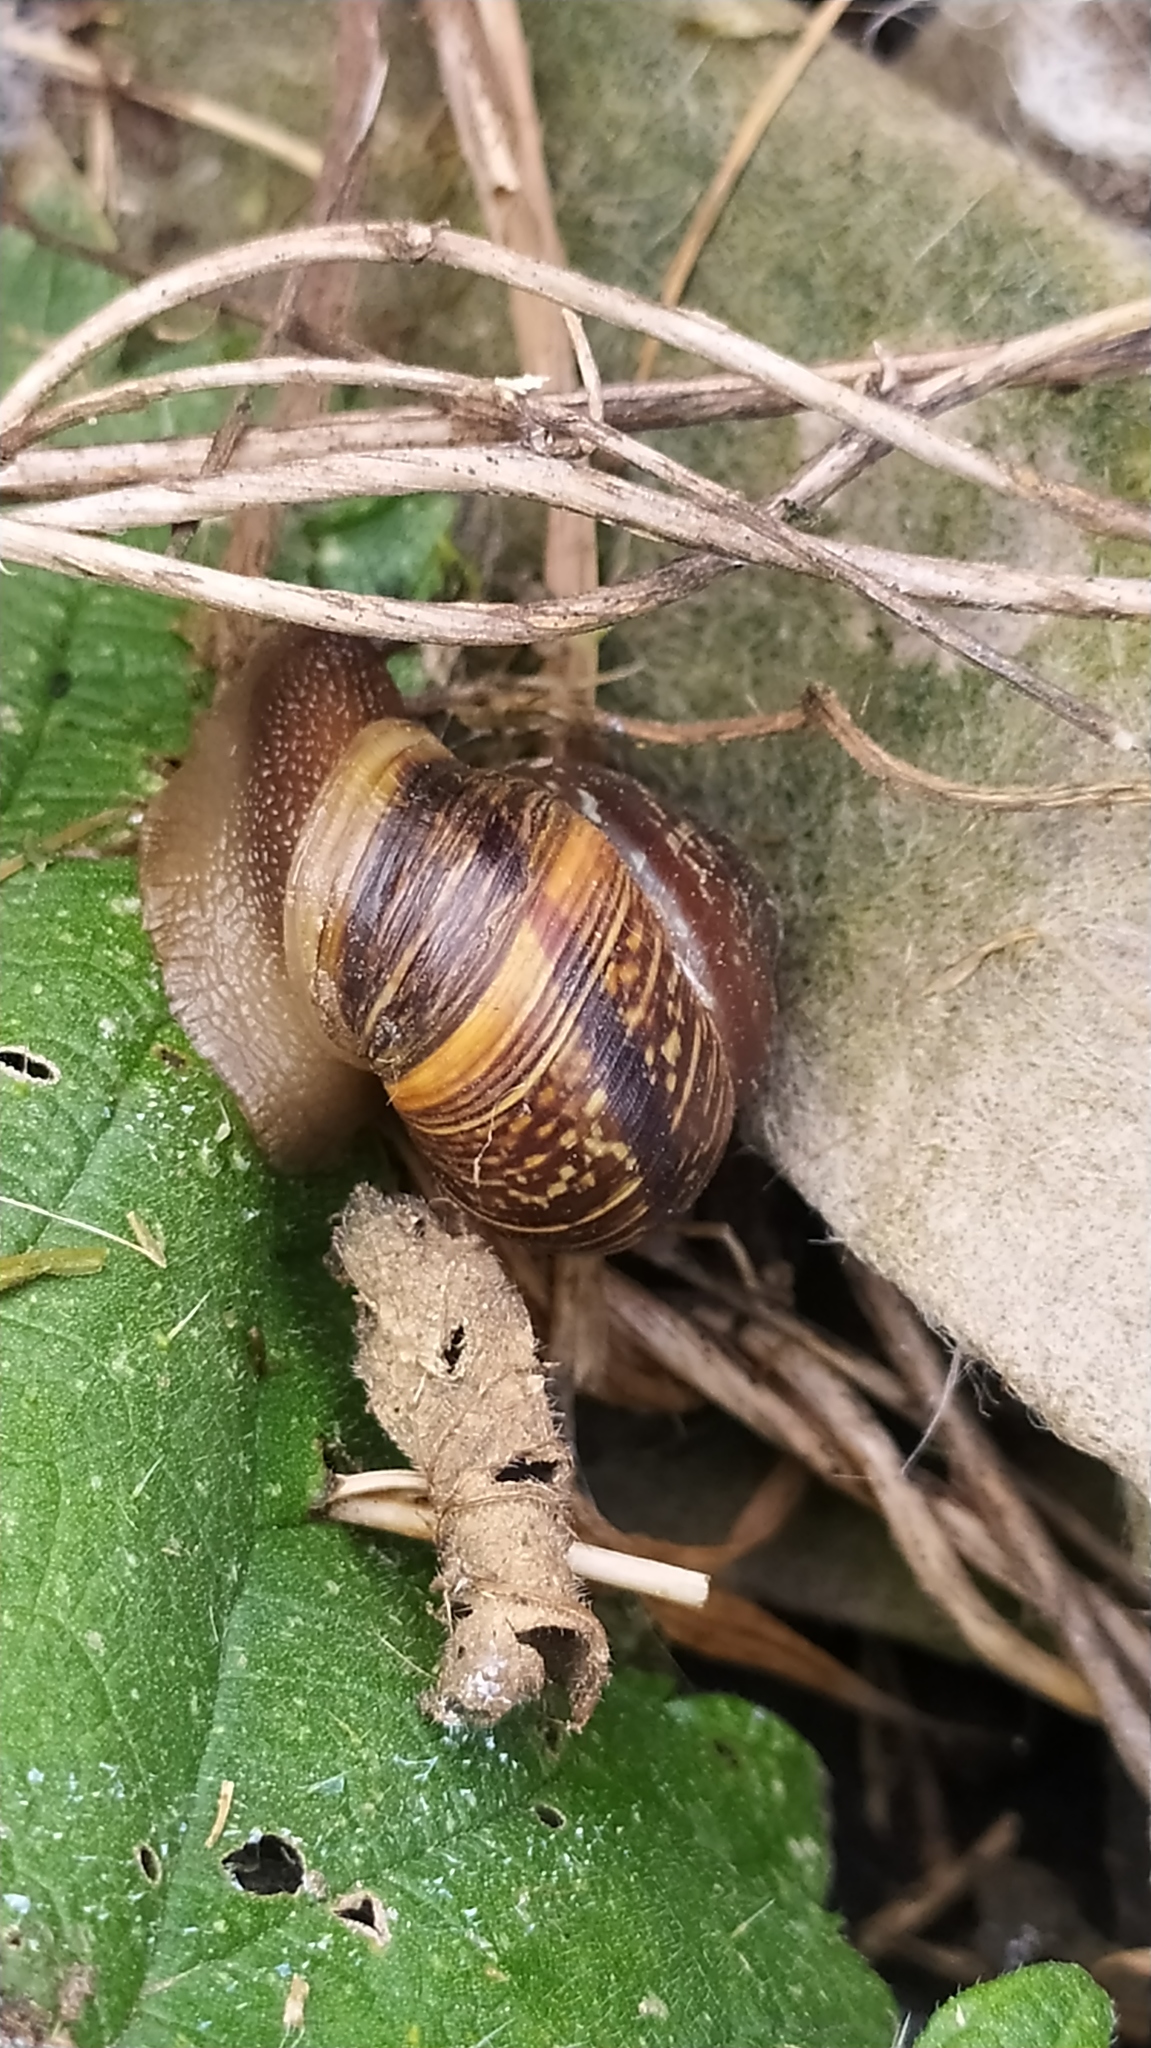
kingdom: Animalia
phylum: Mollusca
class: Gastropoda
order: Stylommatophora
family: Helicidae
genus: Arianta
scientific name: Arianta arbustorum
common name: Copse snail
